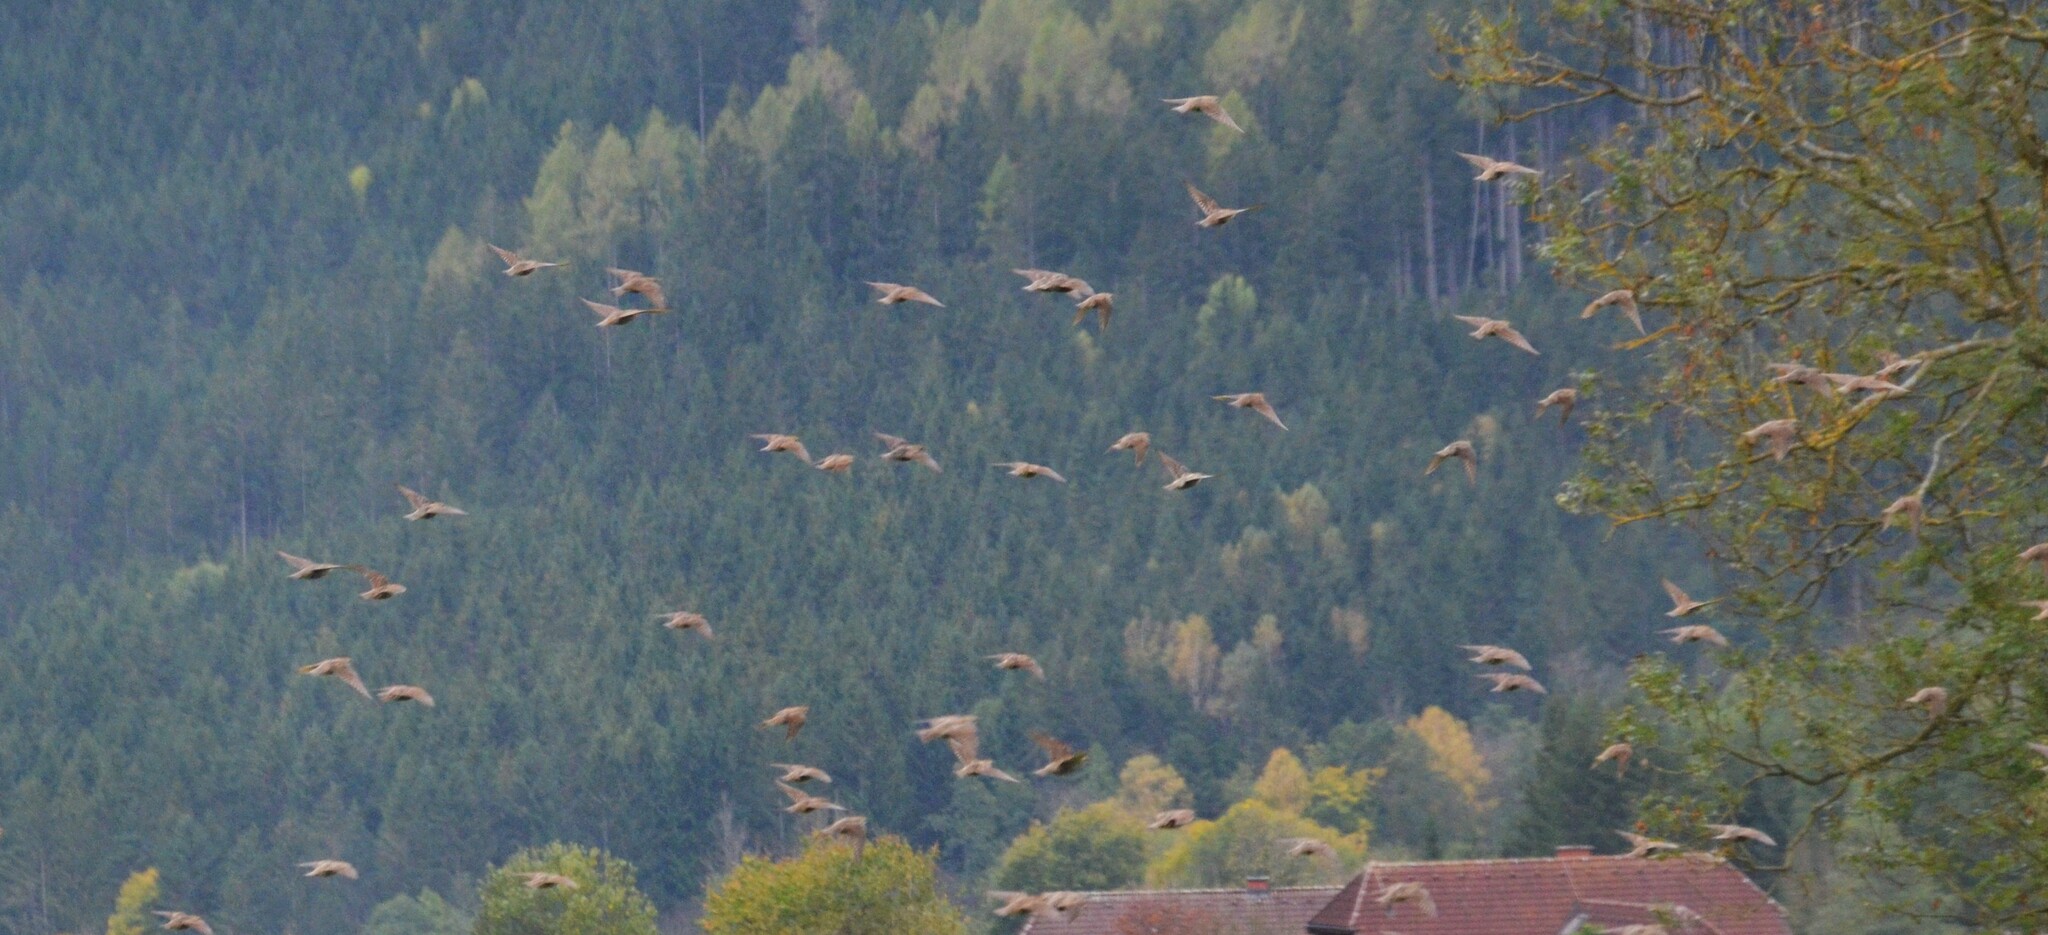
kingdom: Animalia
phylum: Chordata
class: Aves
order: Passeriformes
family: Sturnidae
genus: Sturnus
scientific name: Sturnus vulgaris
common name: Common starling
